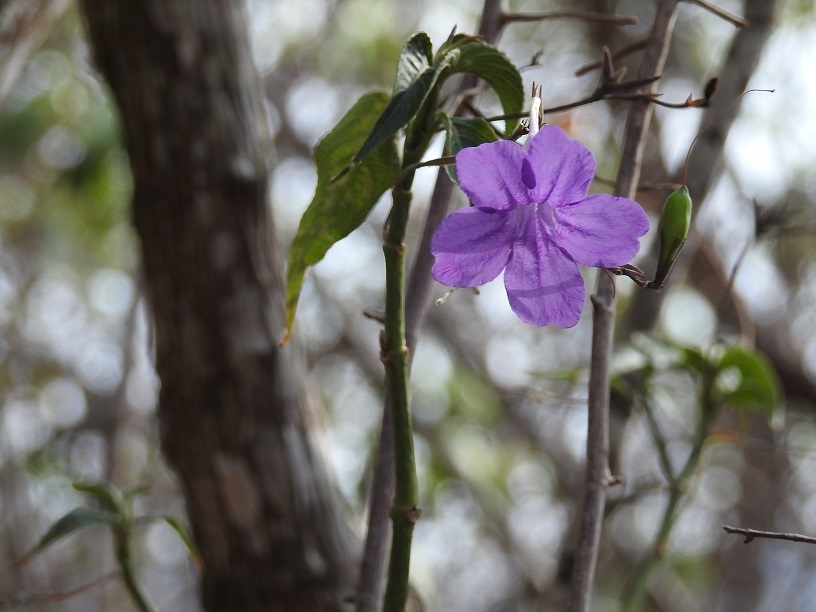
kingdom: Plantae
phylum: Tracheophyta
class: Magnoliopsida
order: Lamiales
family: Acanthaceae
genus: Ruellia
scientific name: Ruellia breedlovei
